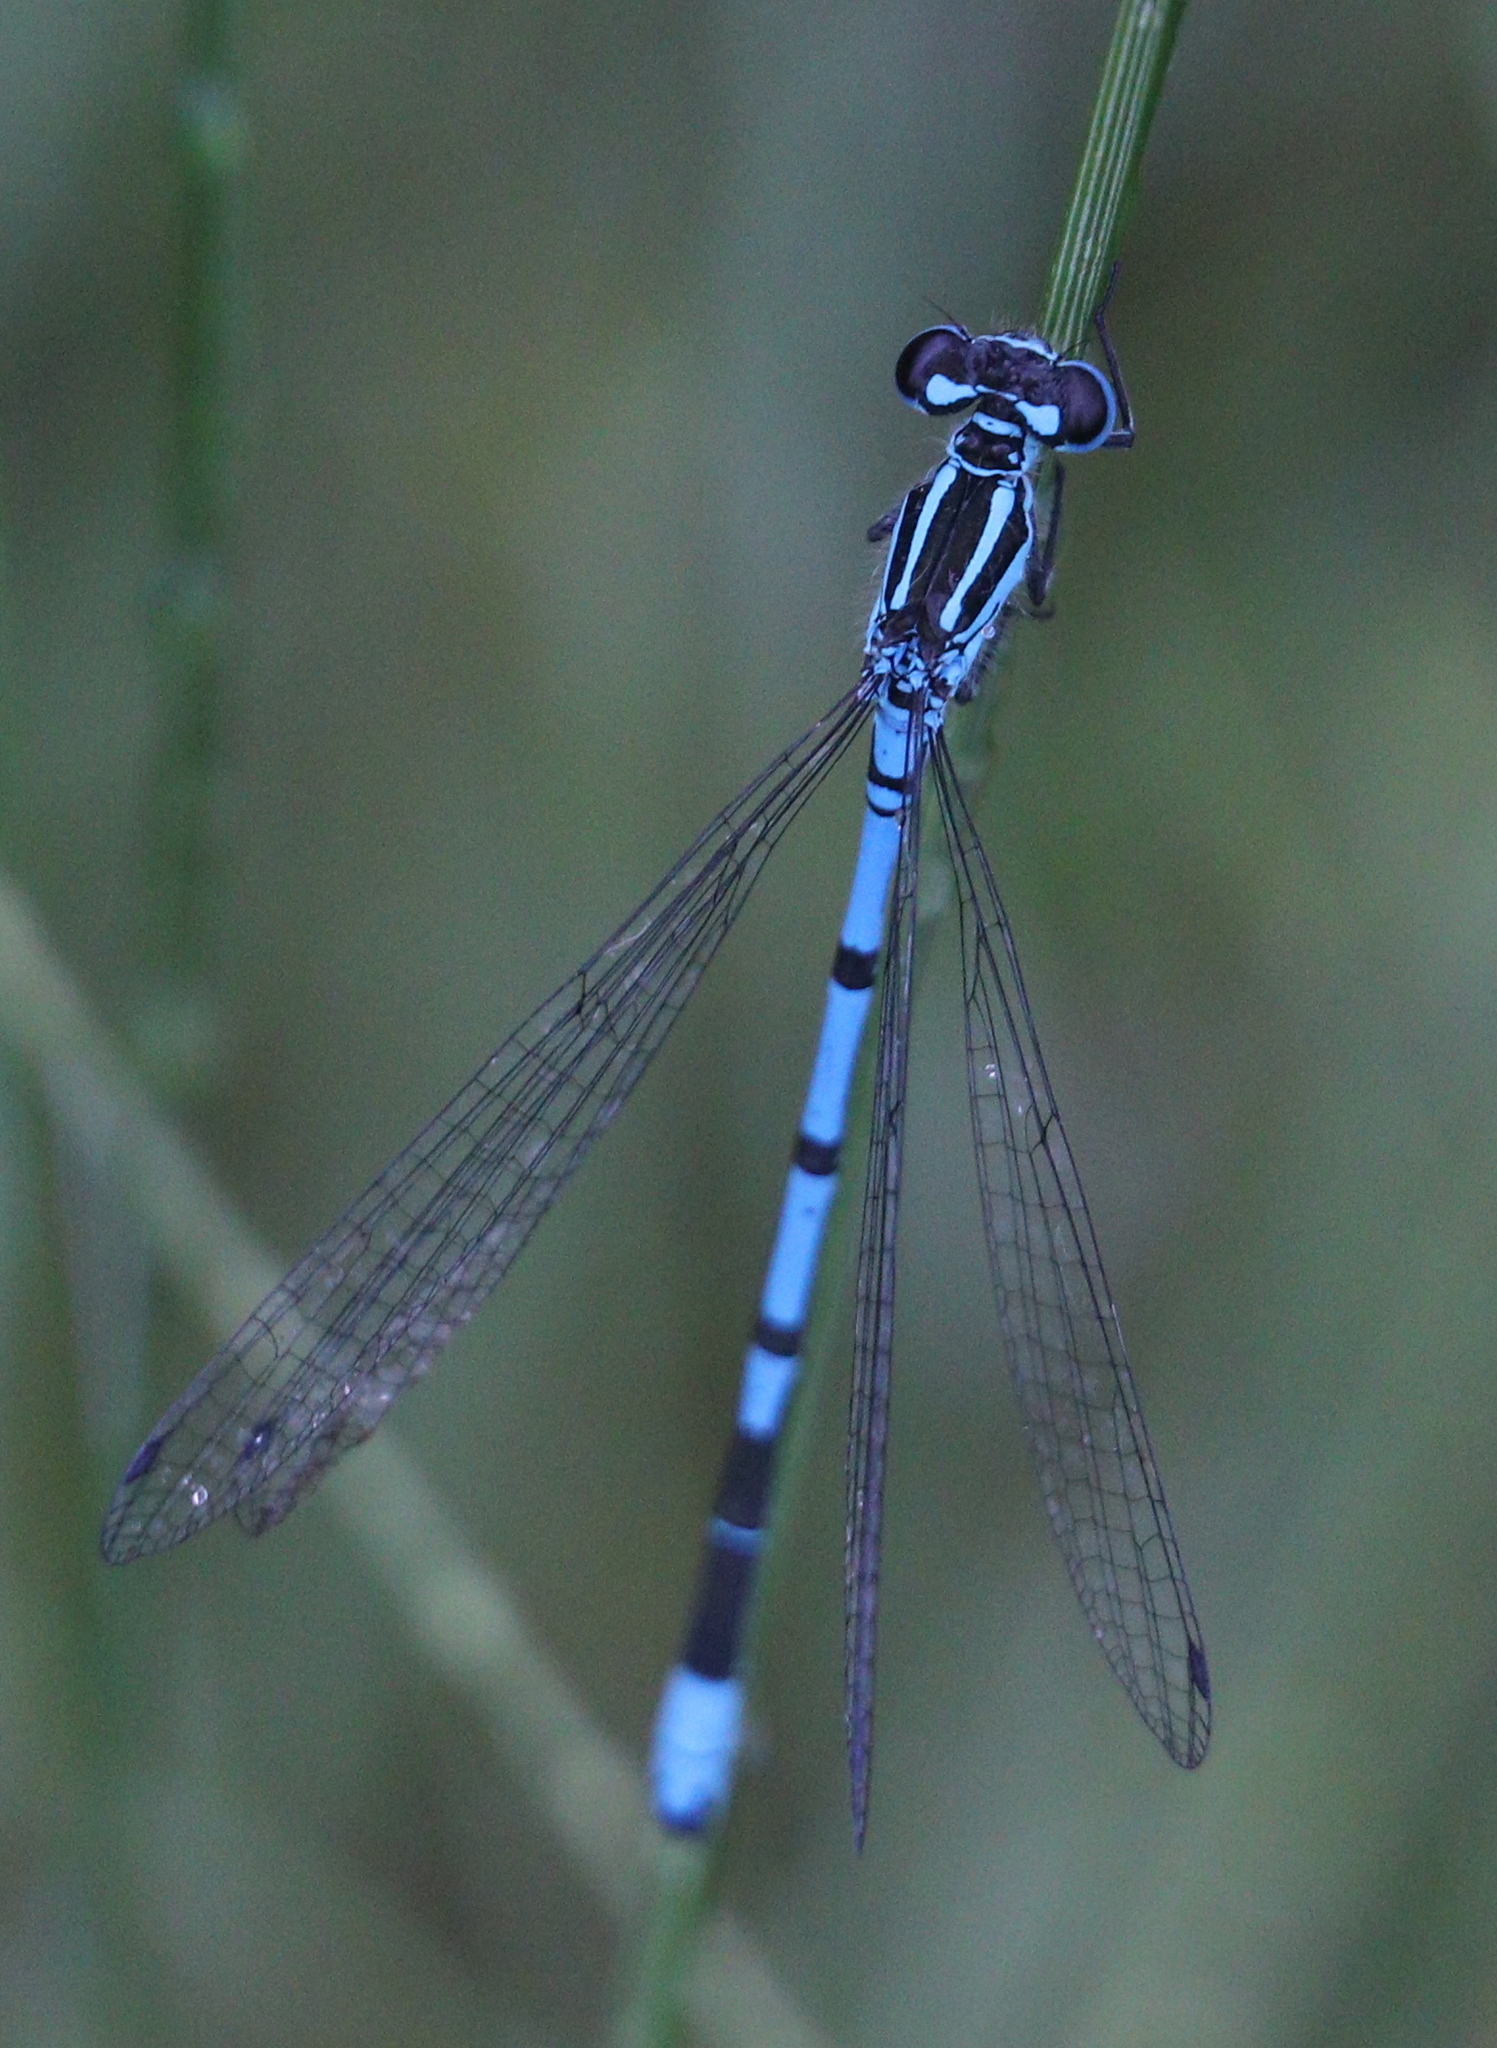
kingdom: Animalia
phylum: Arthropoda
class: Insecta
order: Odonata
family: Coenagrionidae
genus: Coenagrion
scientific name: Coenagrion puella
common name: Azure damselfly
